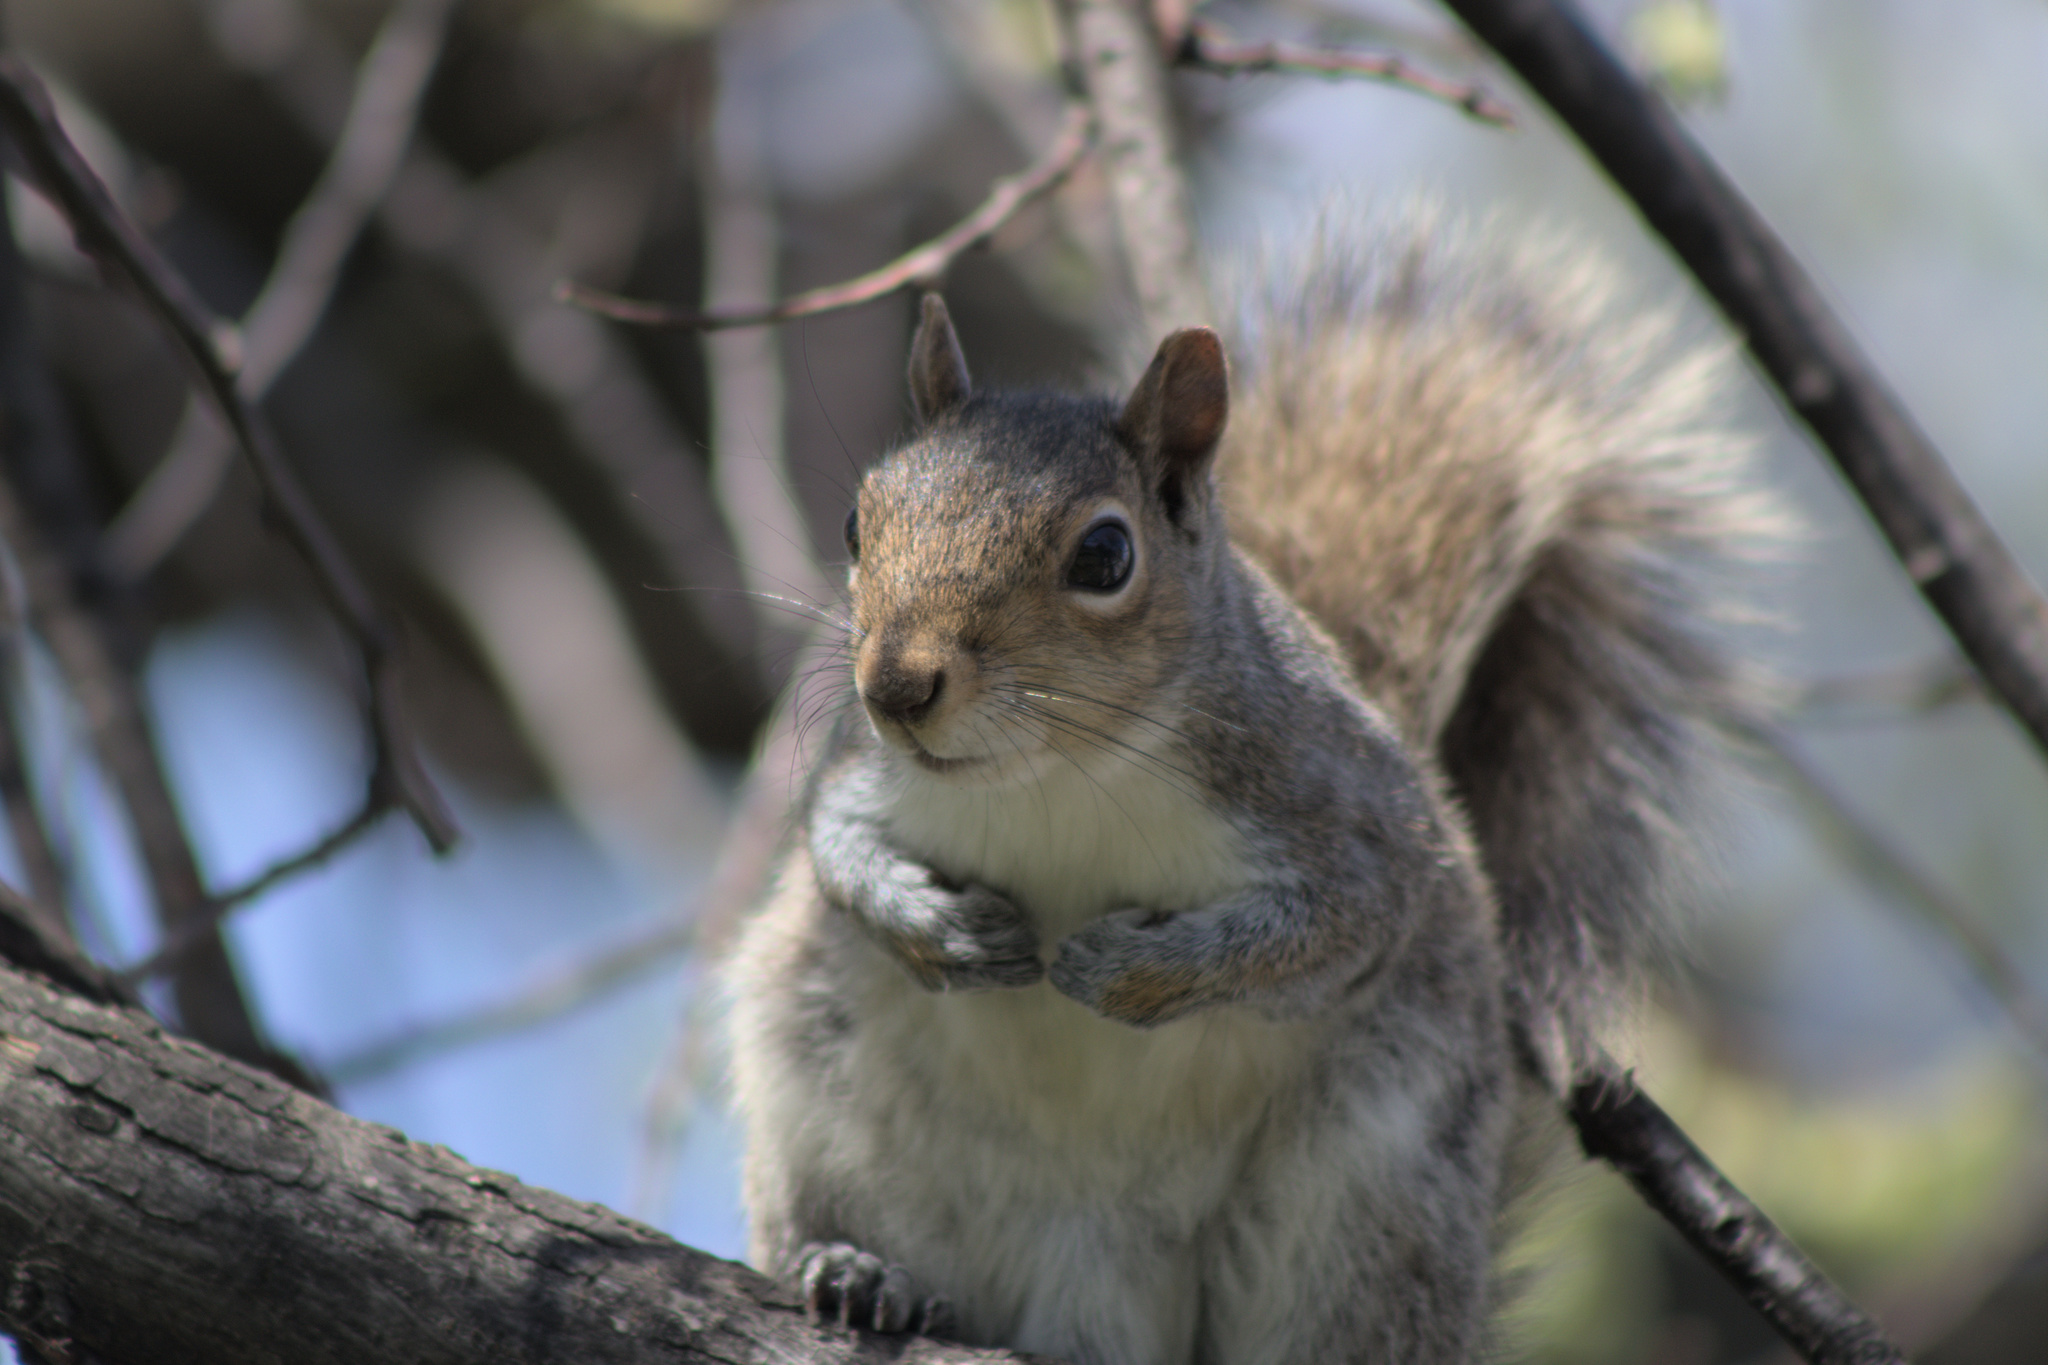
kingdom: Animalia
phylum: Chordata
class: Mammalia
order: Rodentia
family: Sciuridae
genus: Sciurus
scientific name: Sciurus carolinensis
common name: Eastern gray squirrel
